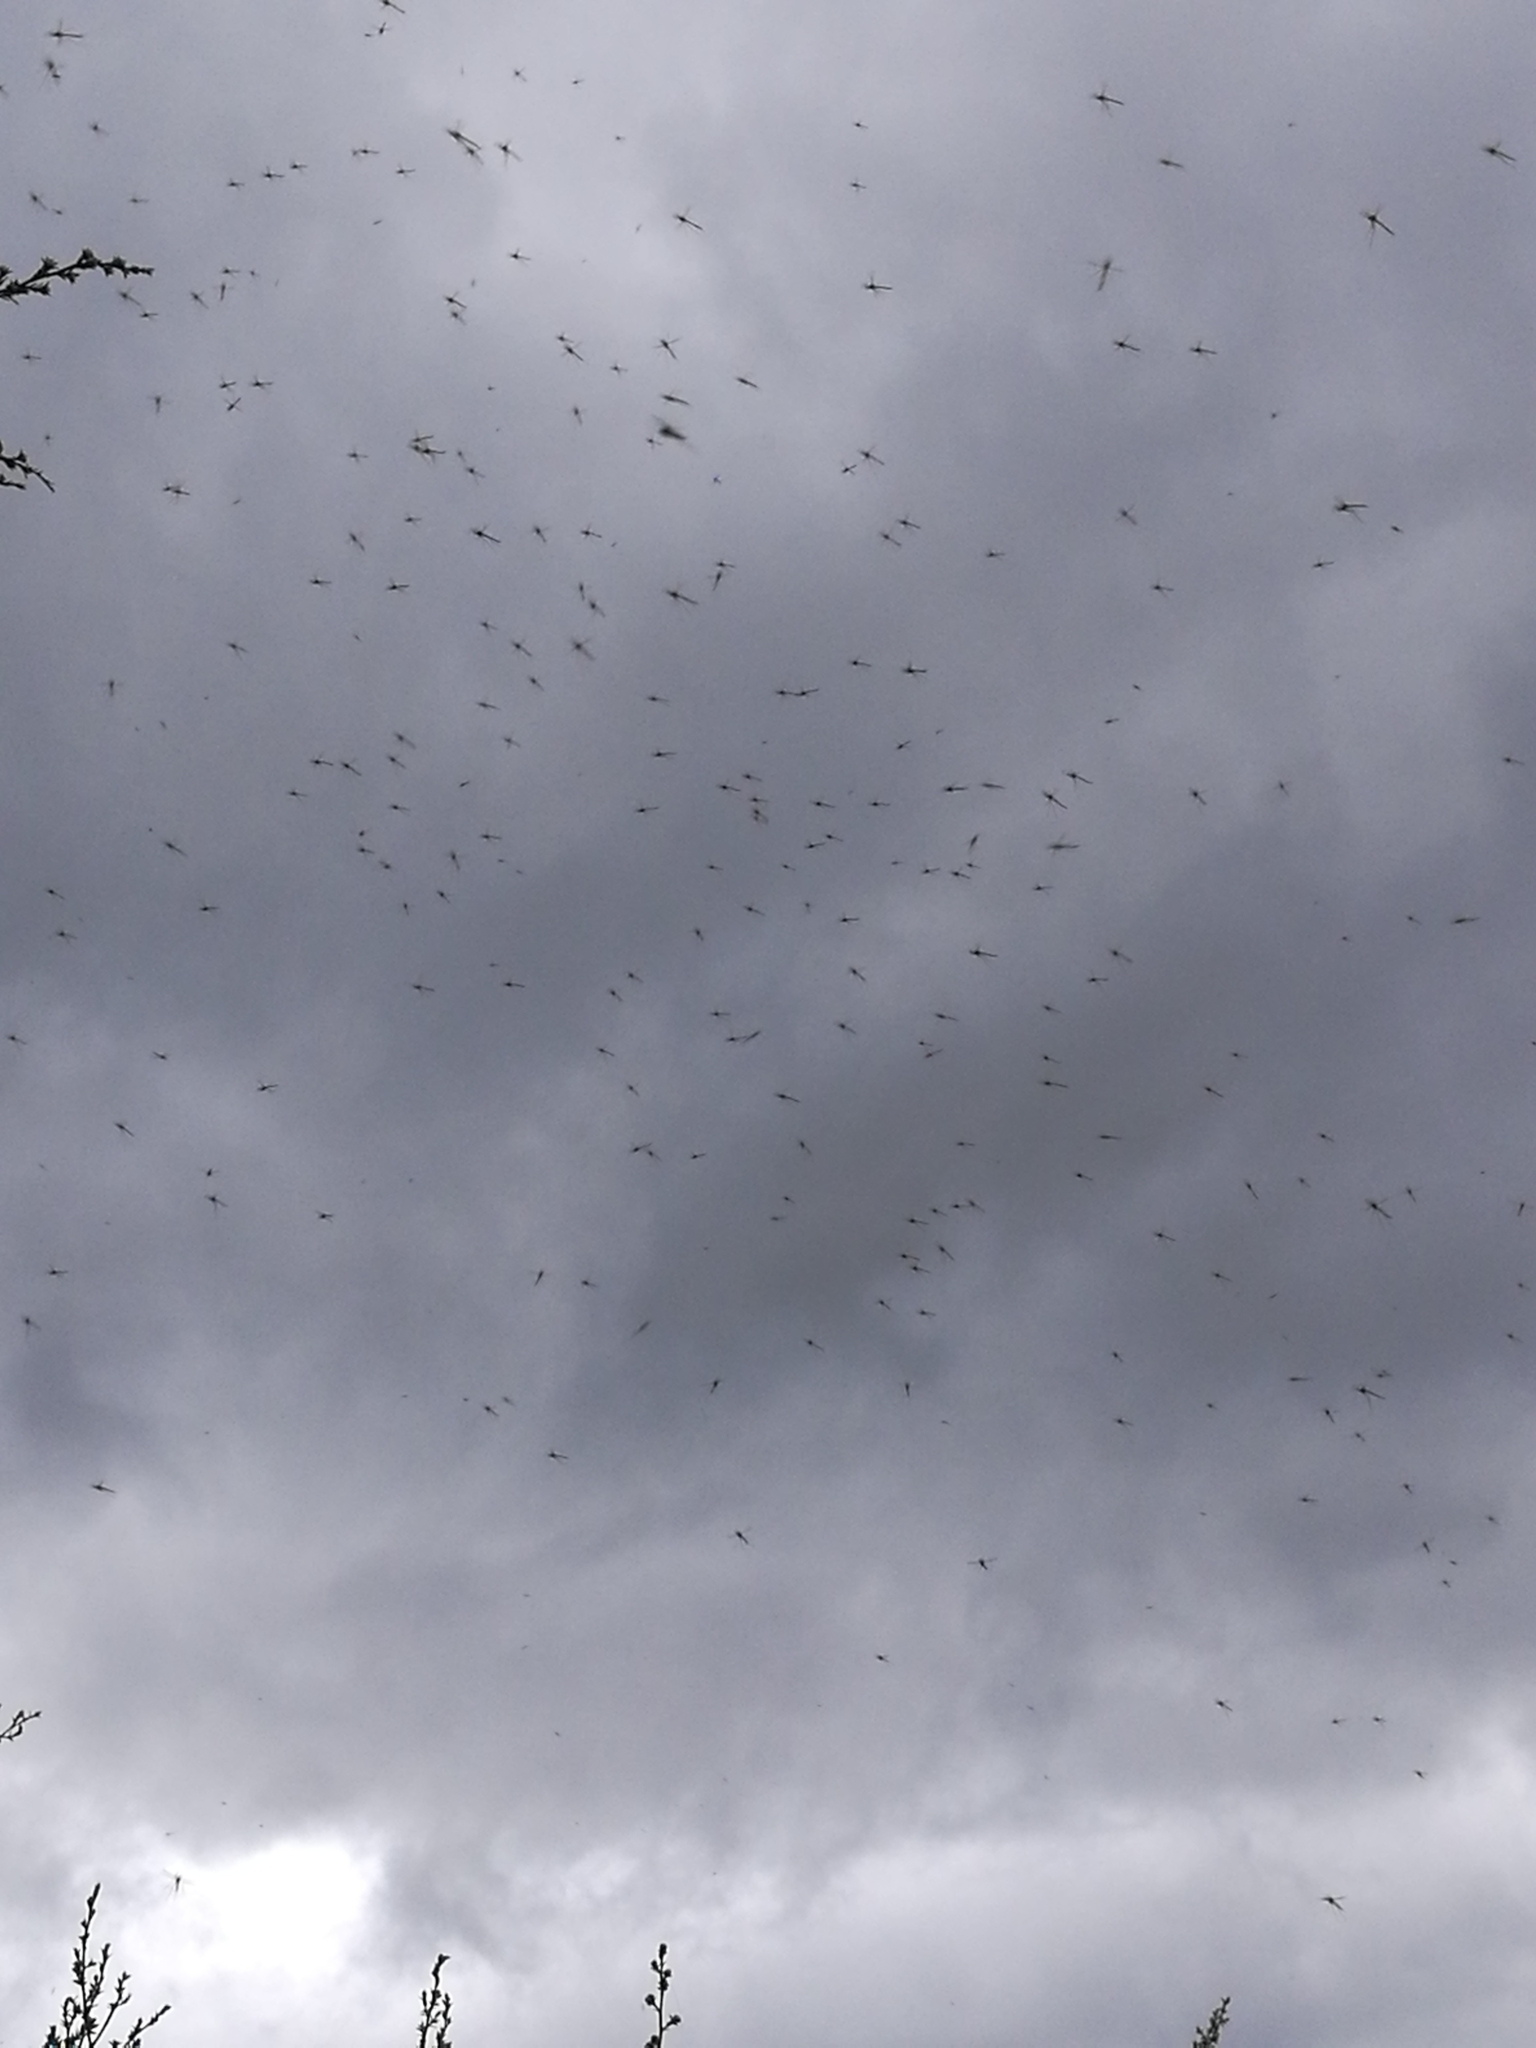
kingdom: Plantae
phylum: Tracheophyta
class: Magnoliopsida
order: Myrtales
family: Myrtaceae
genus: Leptospermum
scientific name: Leptospermum scoparium
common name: Broom tea-tree
